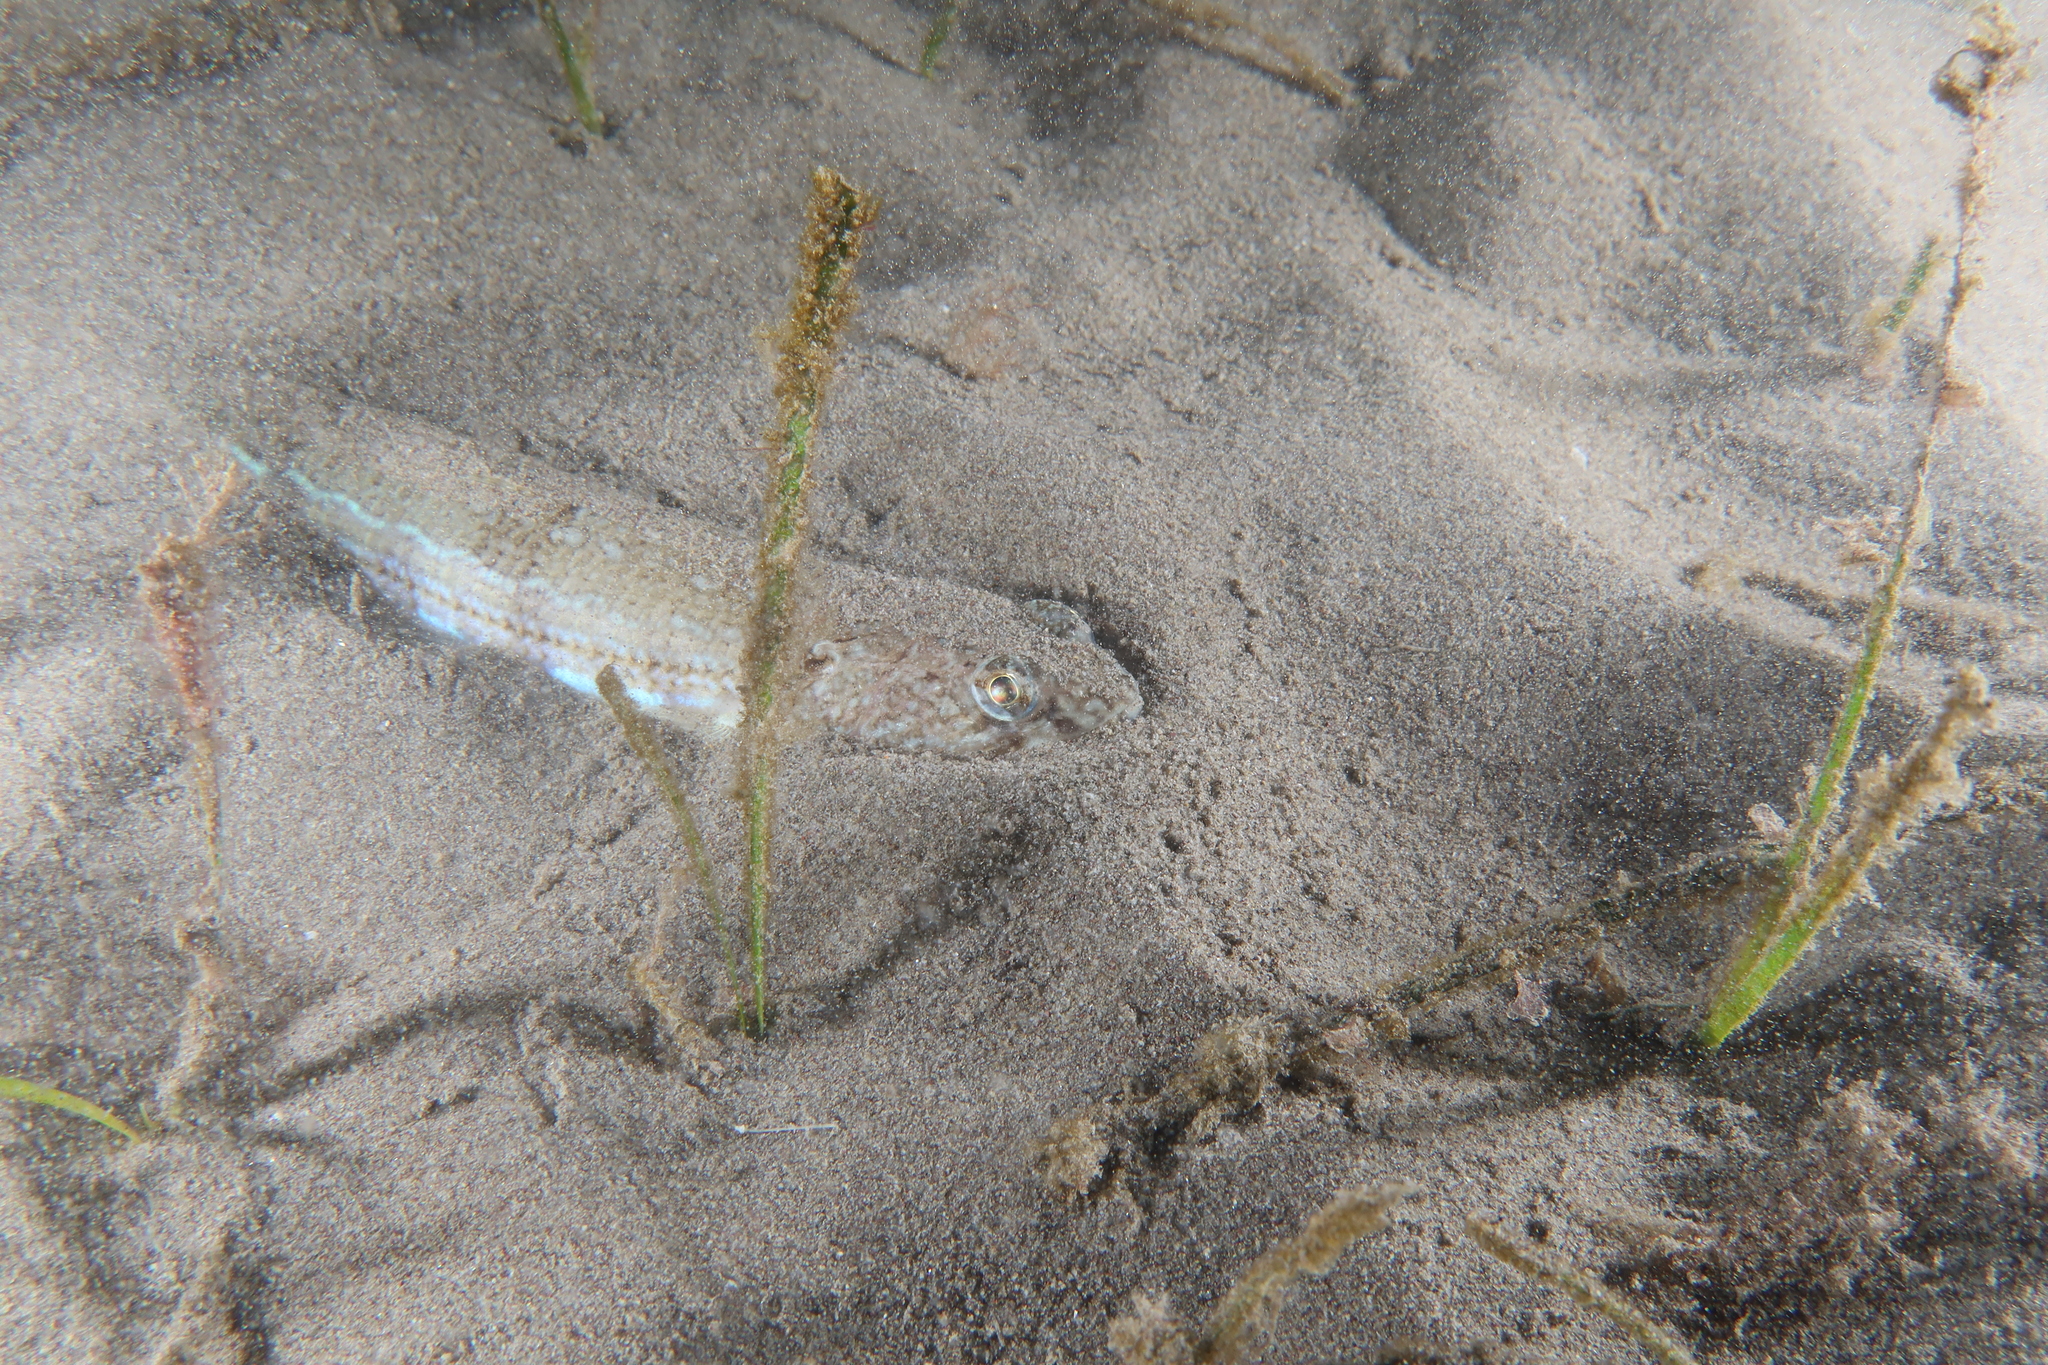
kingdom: Animalia
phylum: Chordata
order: Aulopiformes
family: Synodontidae
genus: Synodus
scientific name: Synodus saurus
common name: Atlantic lizardfish
